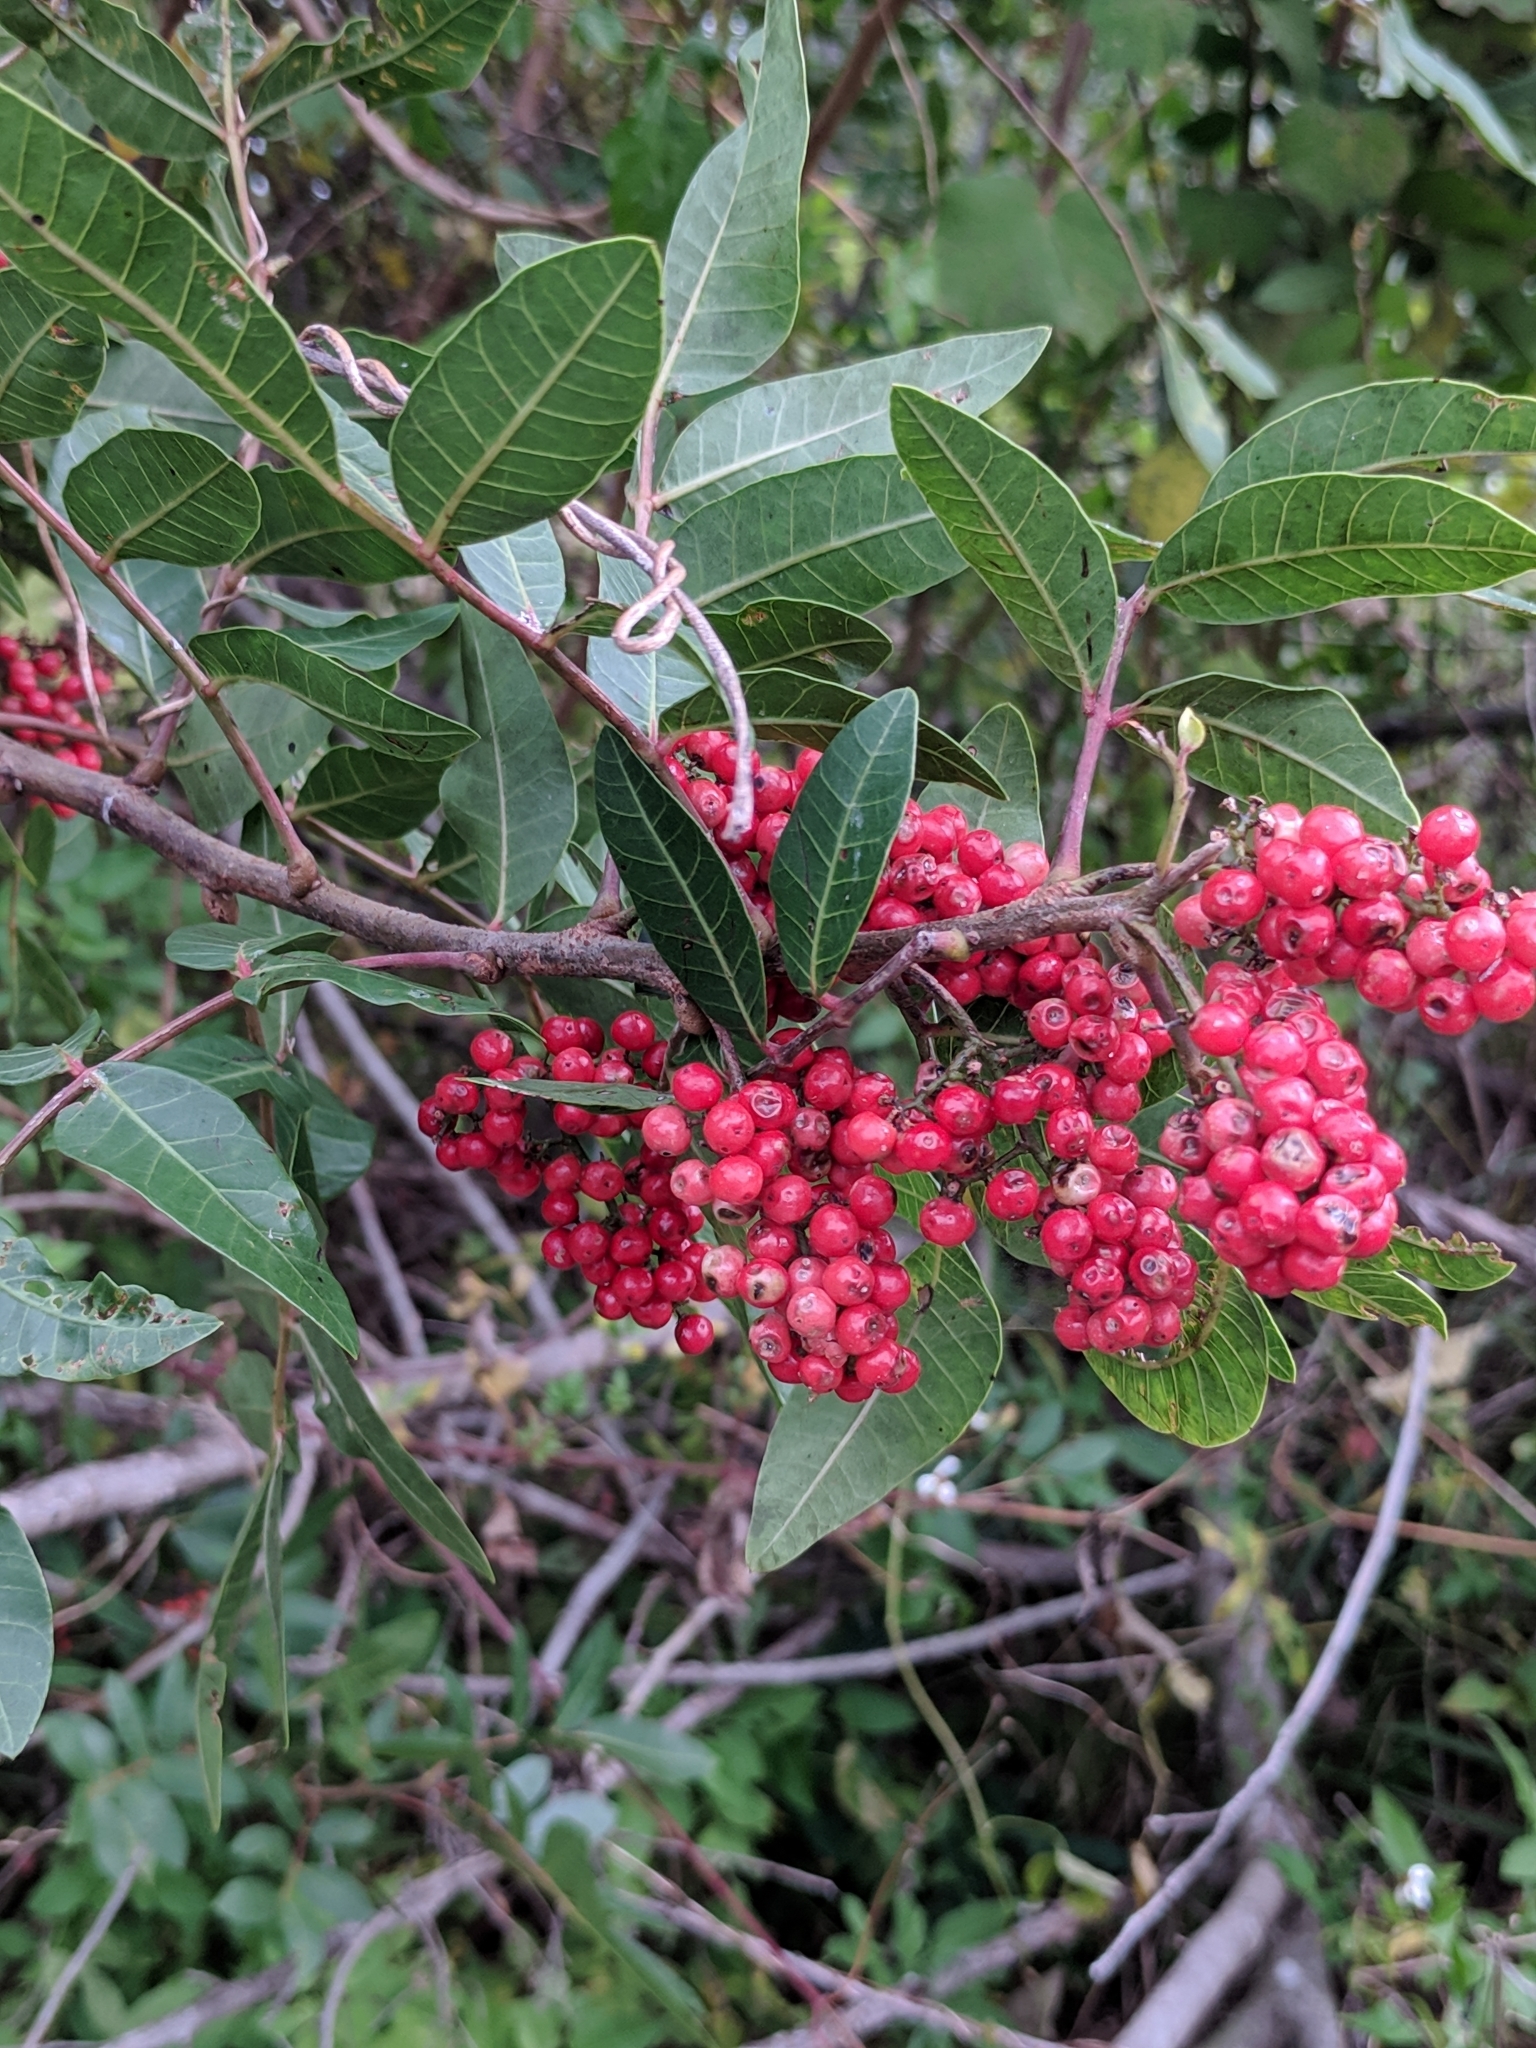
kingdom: Plantae
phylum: Tracheophyta
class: Magnoliopsida
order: Sapindales
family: Anacardiaceae
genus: Schinus
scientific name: Schinus terebinthifolia
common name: Brazilian peppertree
